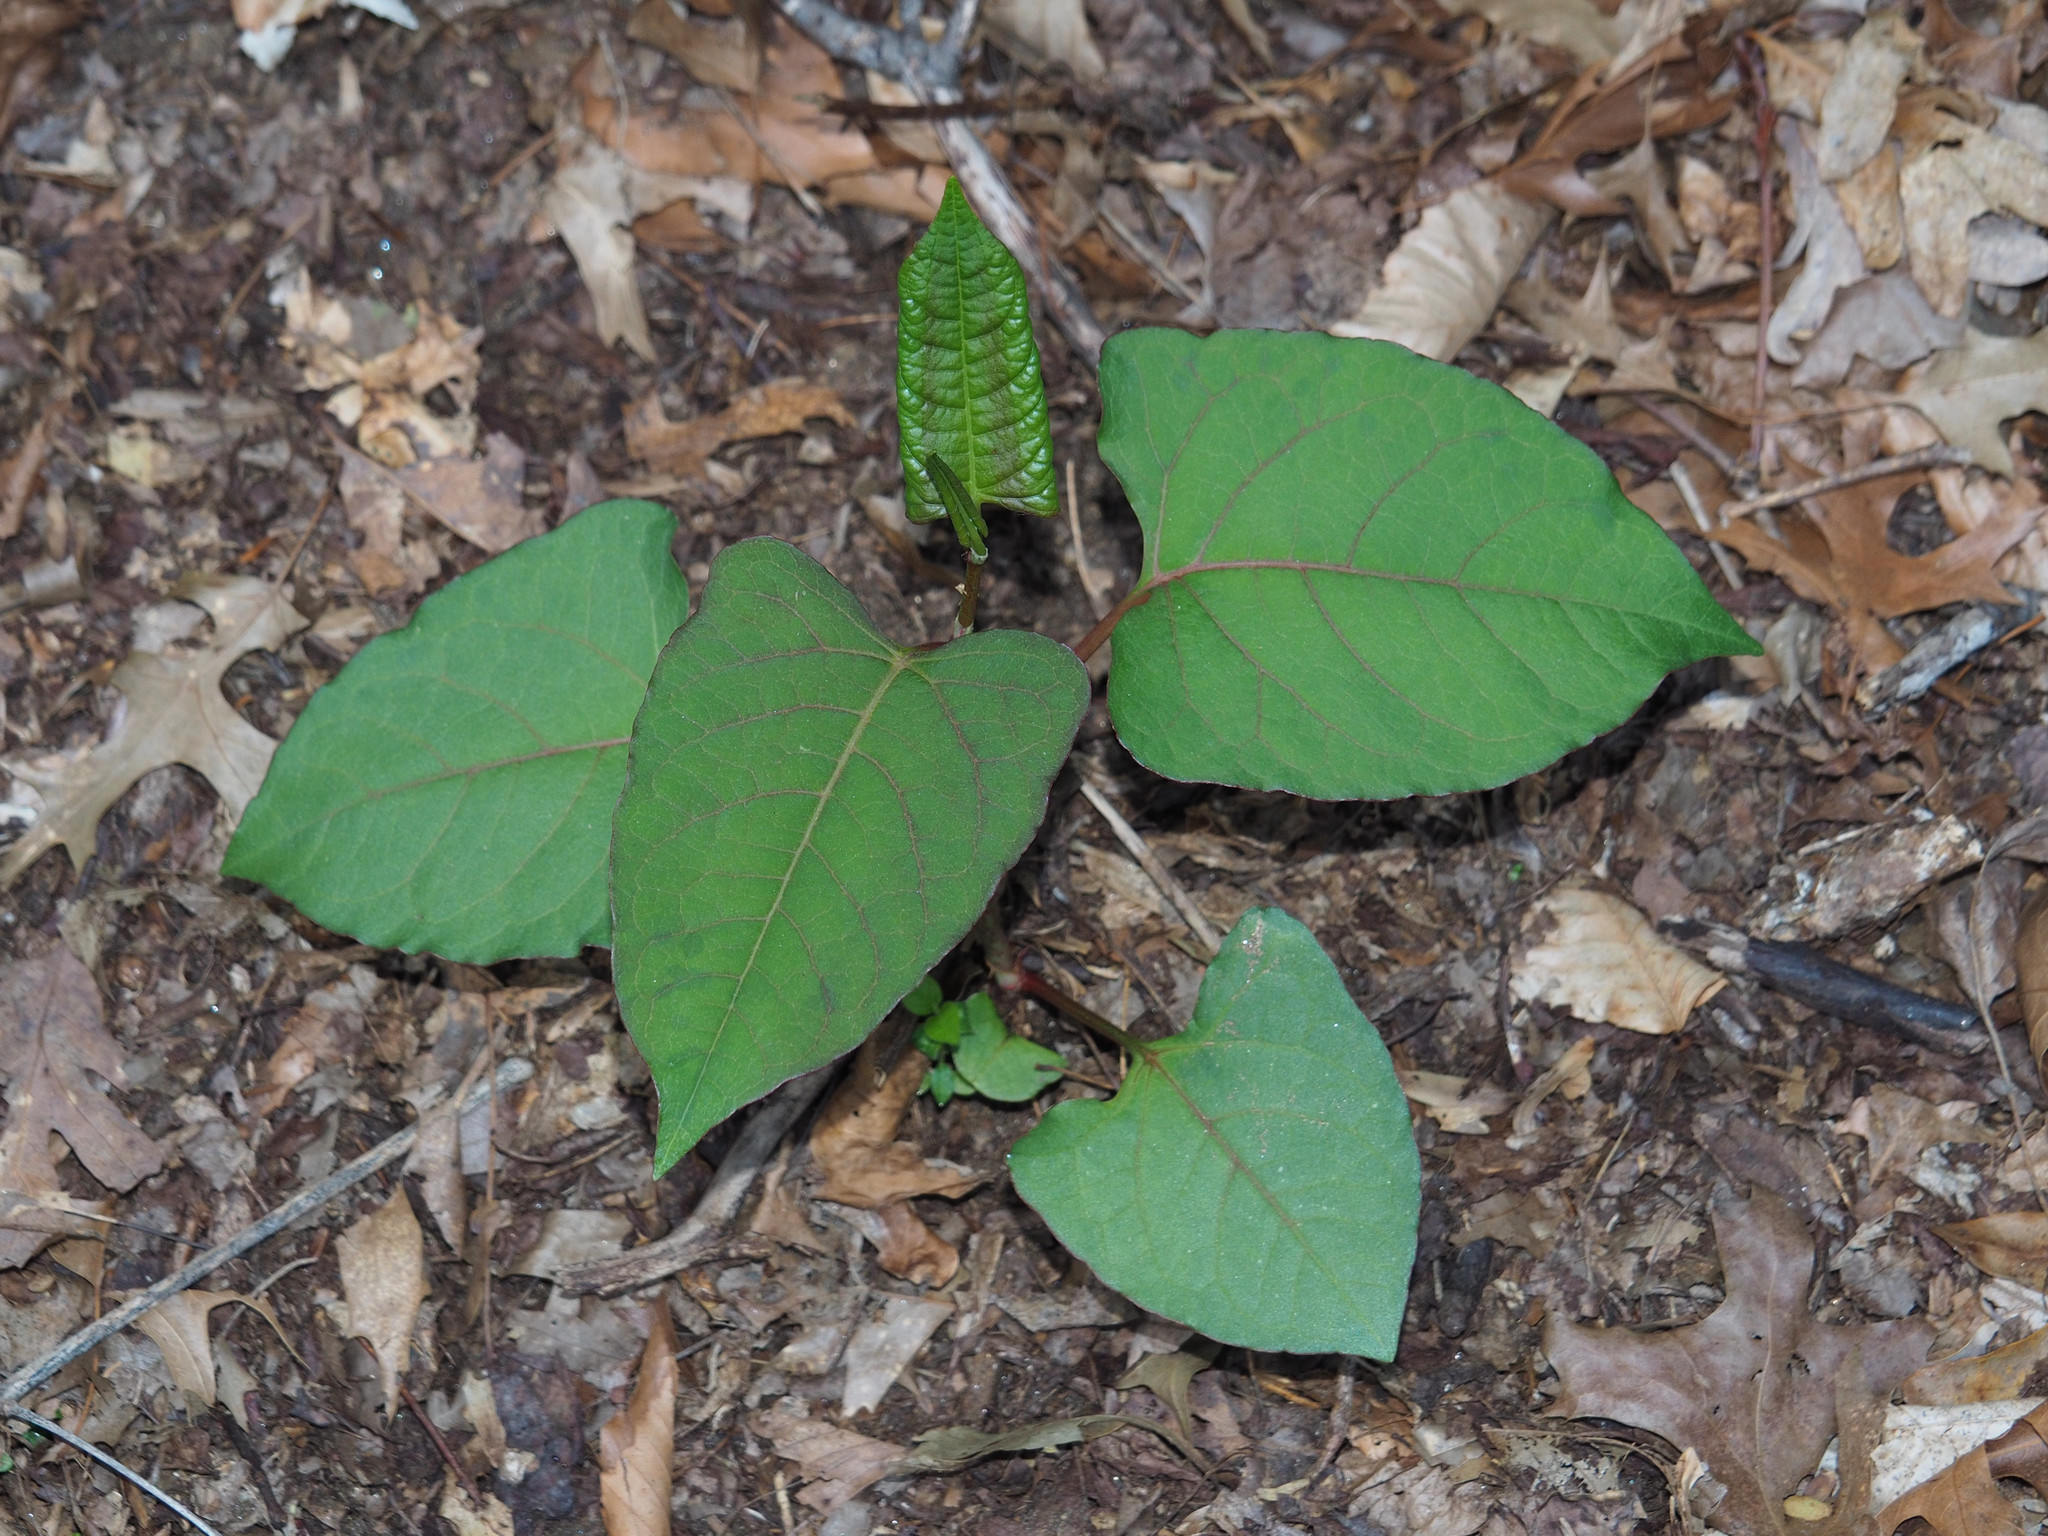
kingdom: Plantae
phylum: Tracheophyta
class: Magnoliopsida
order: Caryophyllales
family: Polygonaceae
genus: Reynoutria
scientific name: Reynoutria japonica
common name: Japanese knotweed
